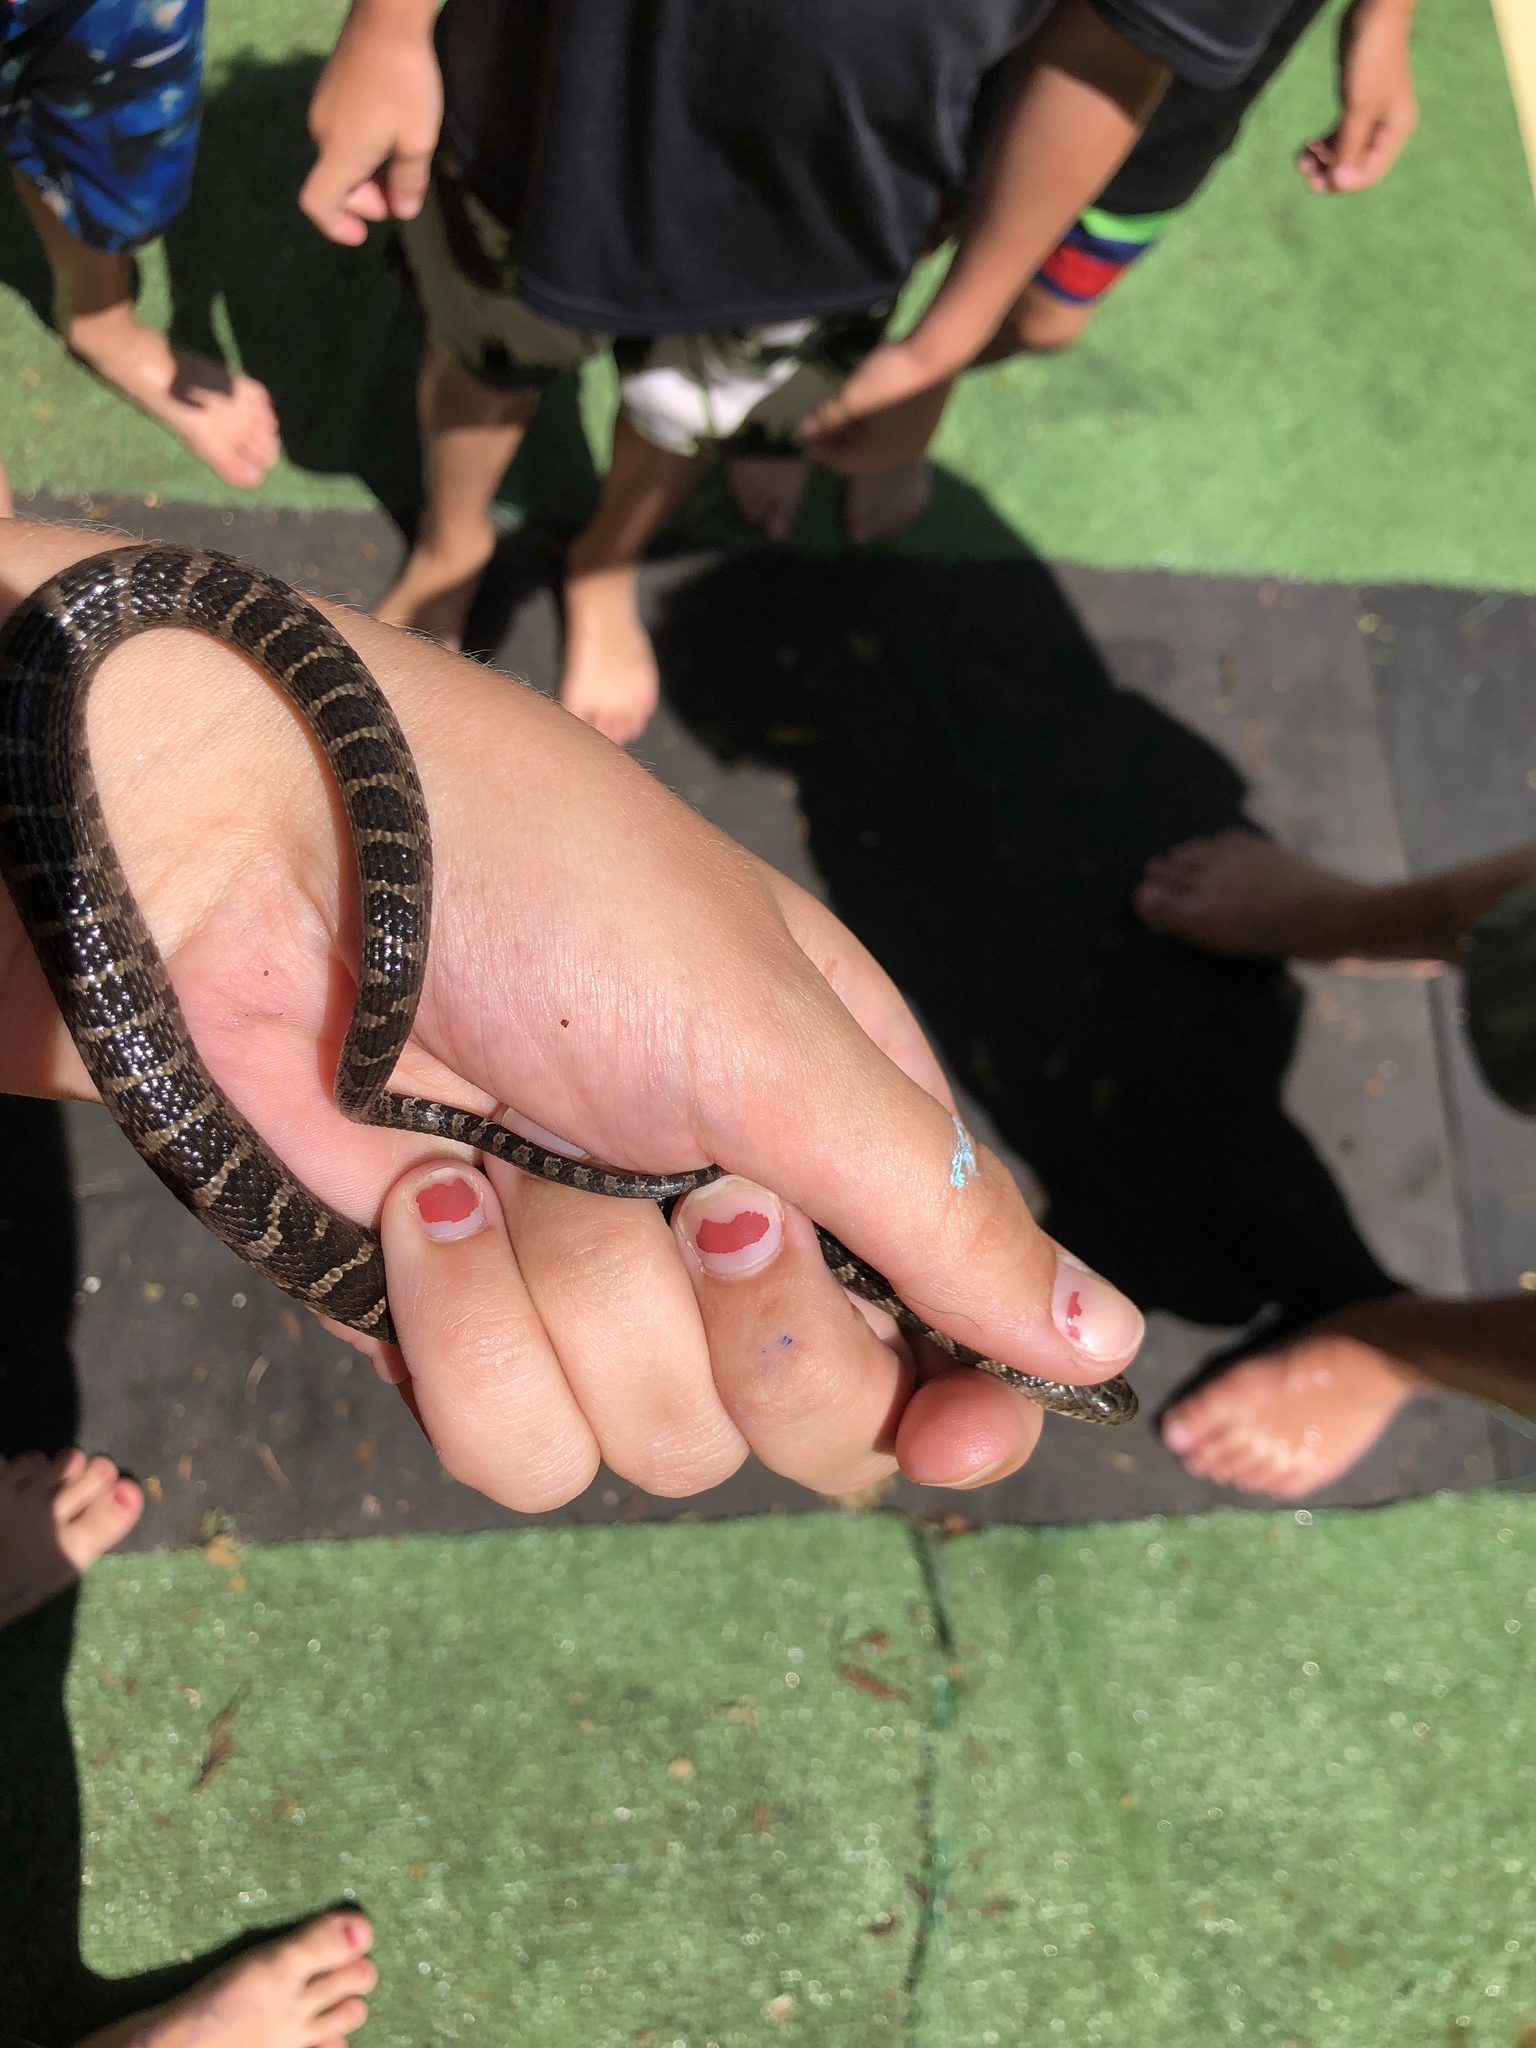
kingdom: Animalia
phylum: Chordata
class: Squamata
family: Colubridae
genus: Nerodia
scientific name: Nerodia sipedon
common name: Northern water snake
